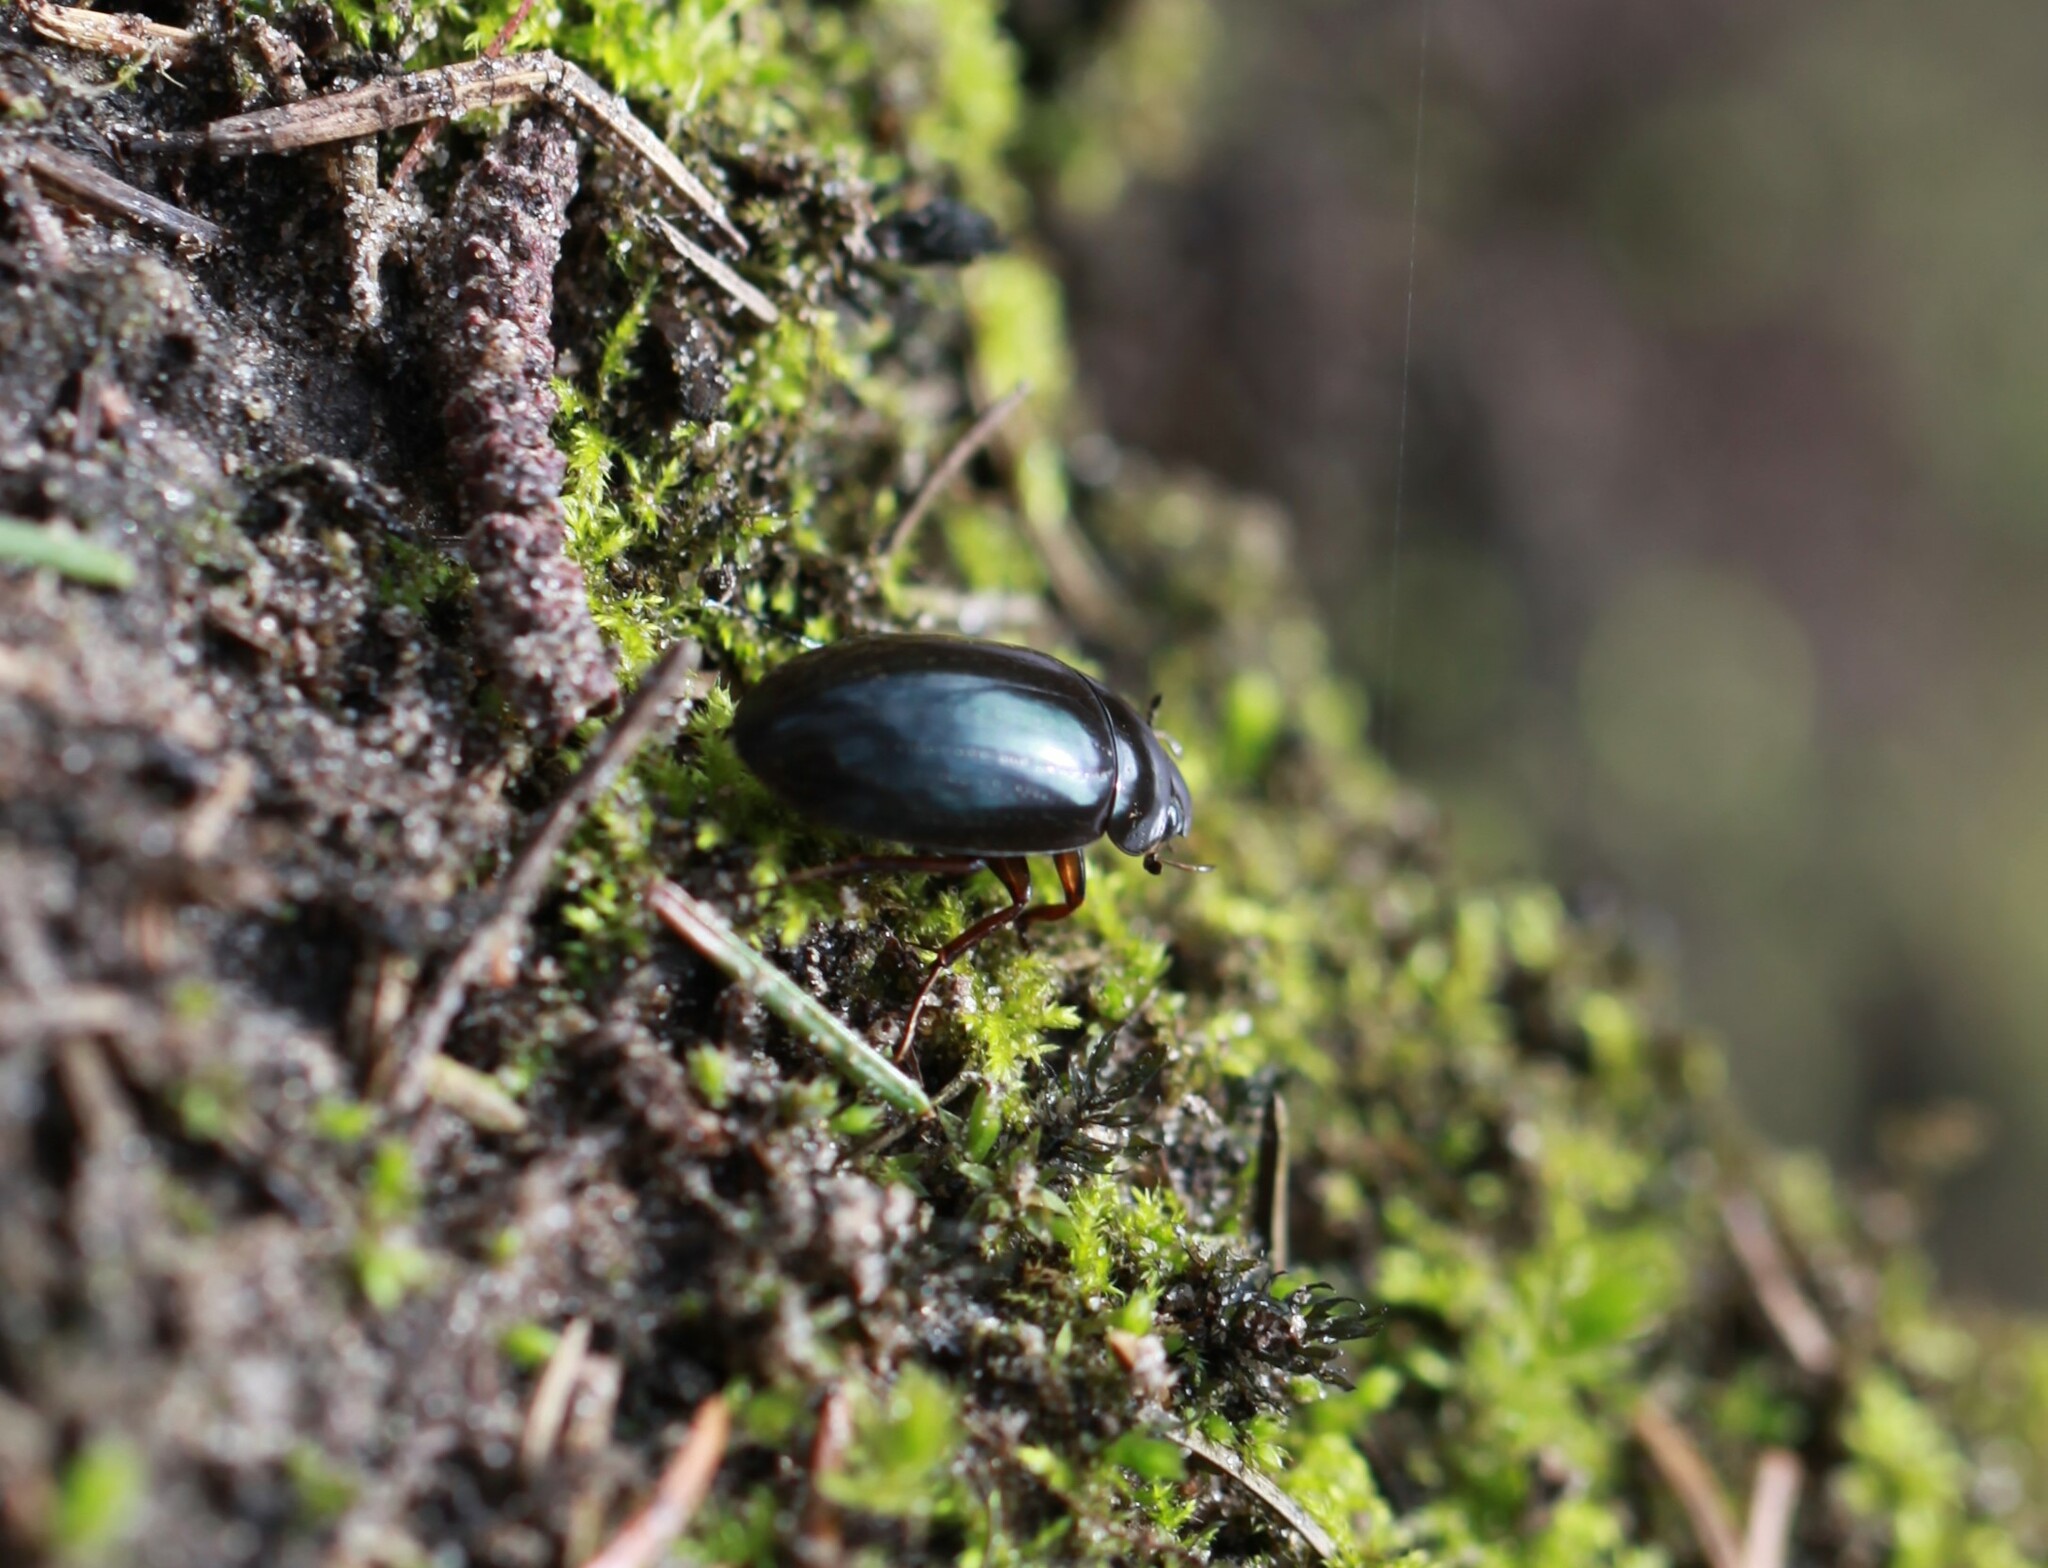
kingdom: Animalia
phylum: Arthropoda
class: Insecta
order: Coleoptera
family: Hydrophilidae
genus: Hydrochara
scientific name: Hydrochara caraboides
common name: Lesser silver water beetle
